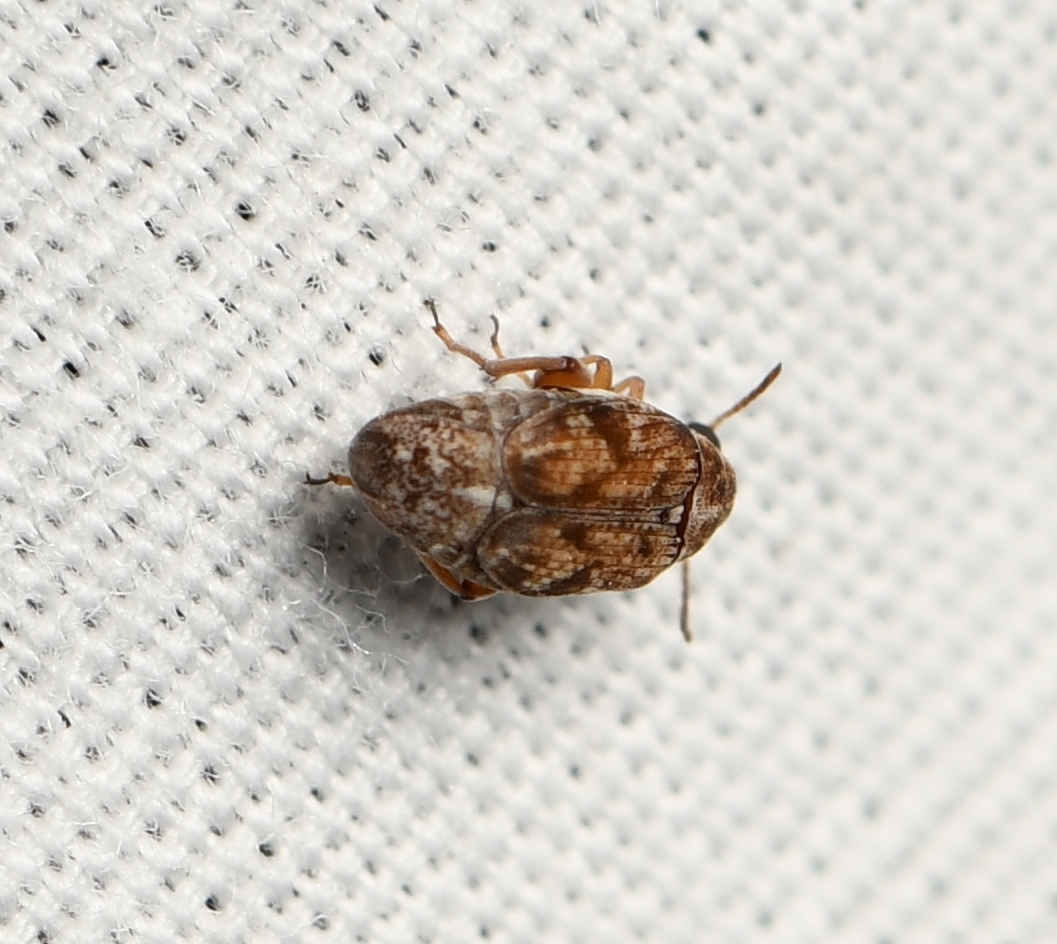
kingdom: Animalia
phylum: Arthropoda
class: Insecta
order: Coleoptera
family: Chrysomelidae
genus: Algarobius
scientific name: Algarobius prosopis
